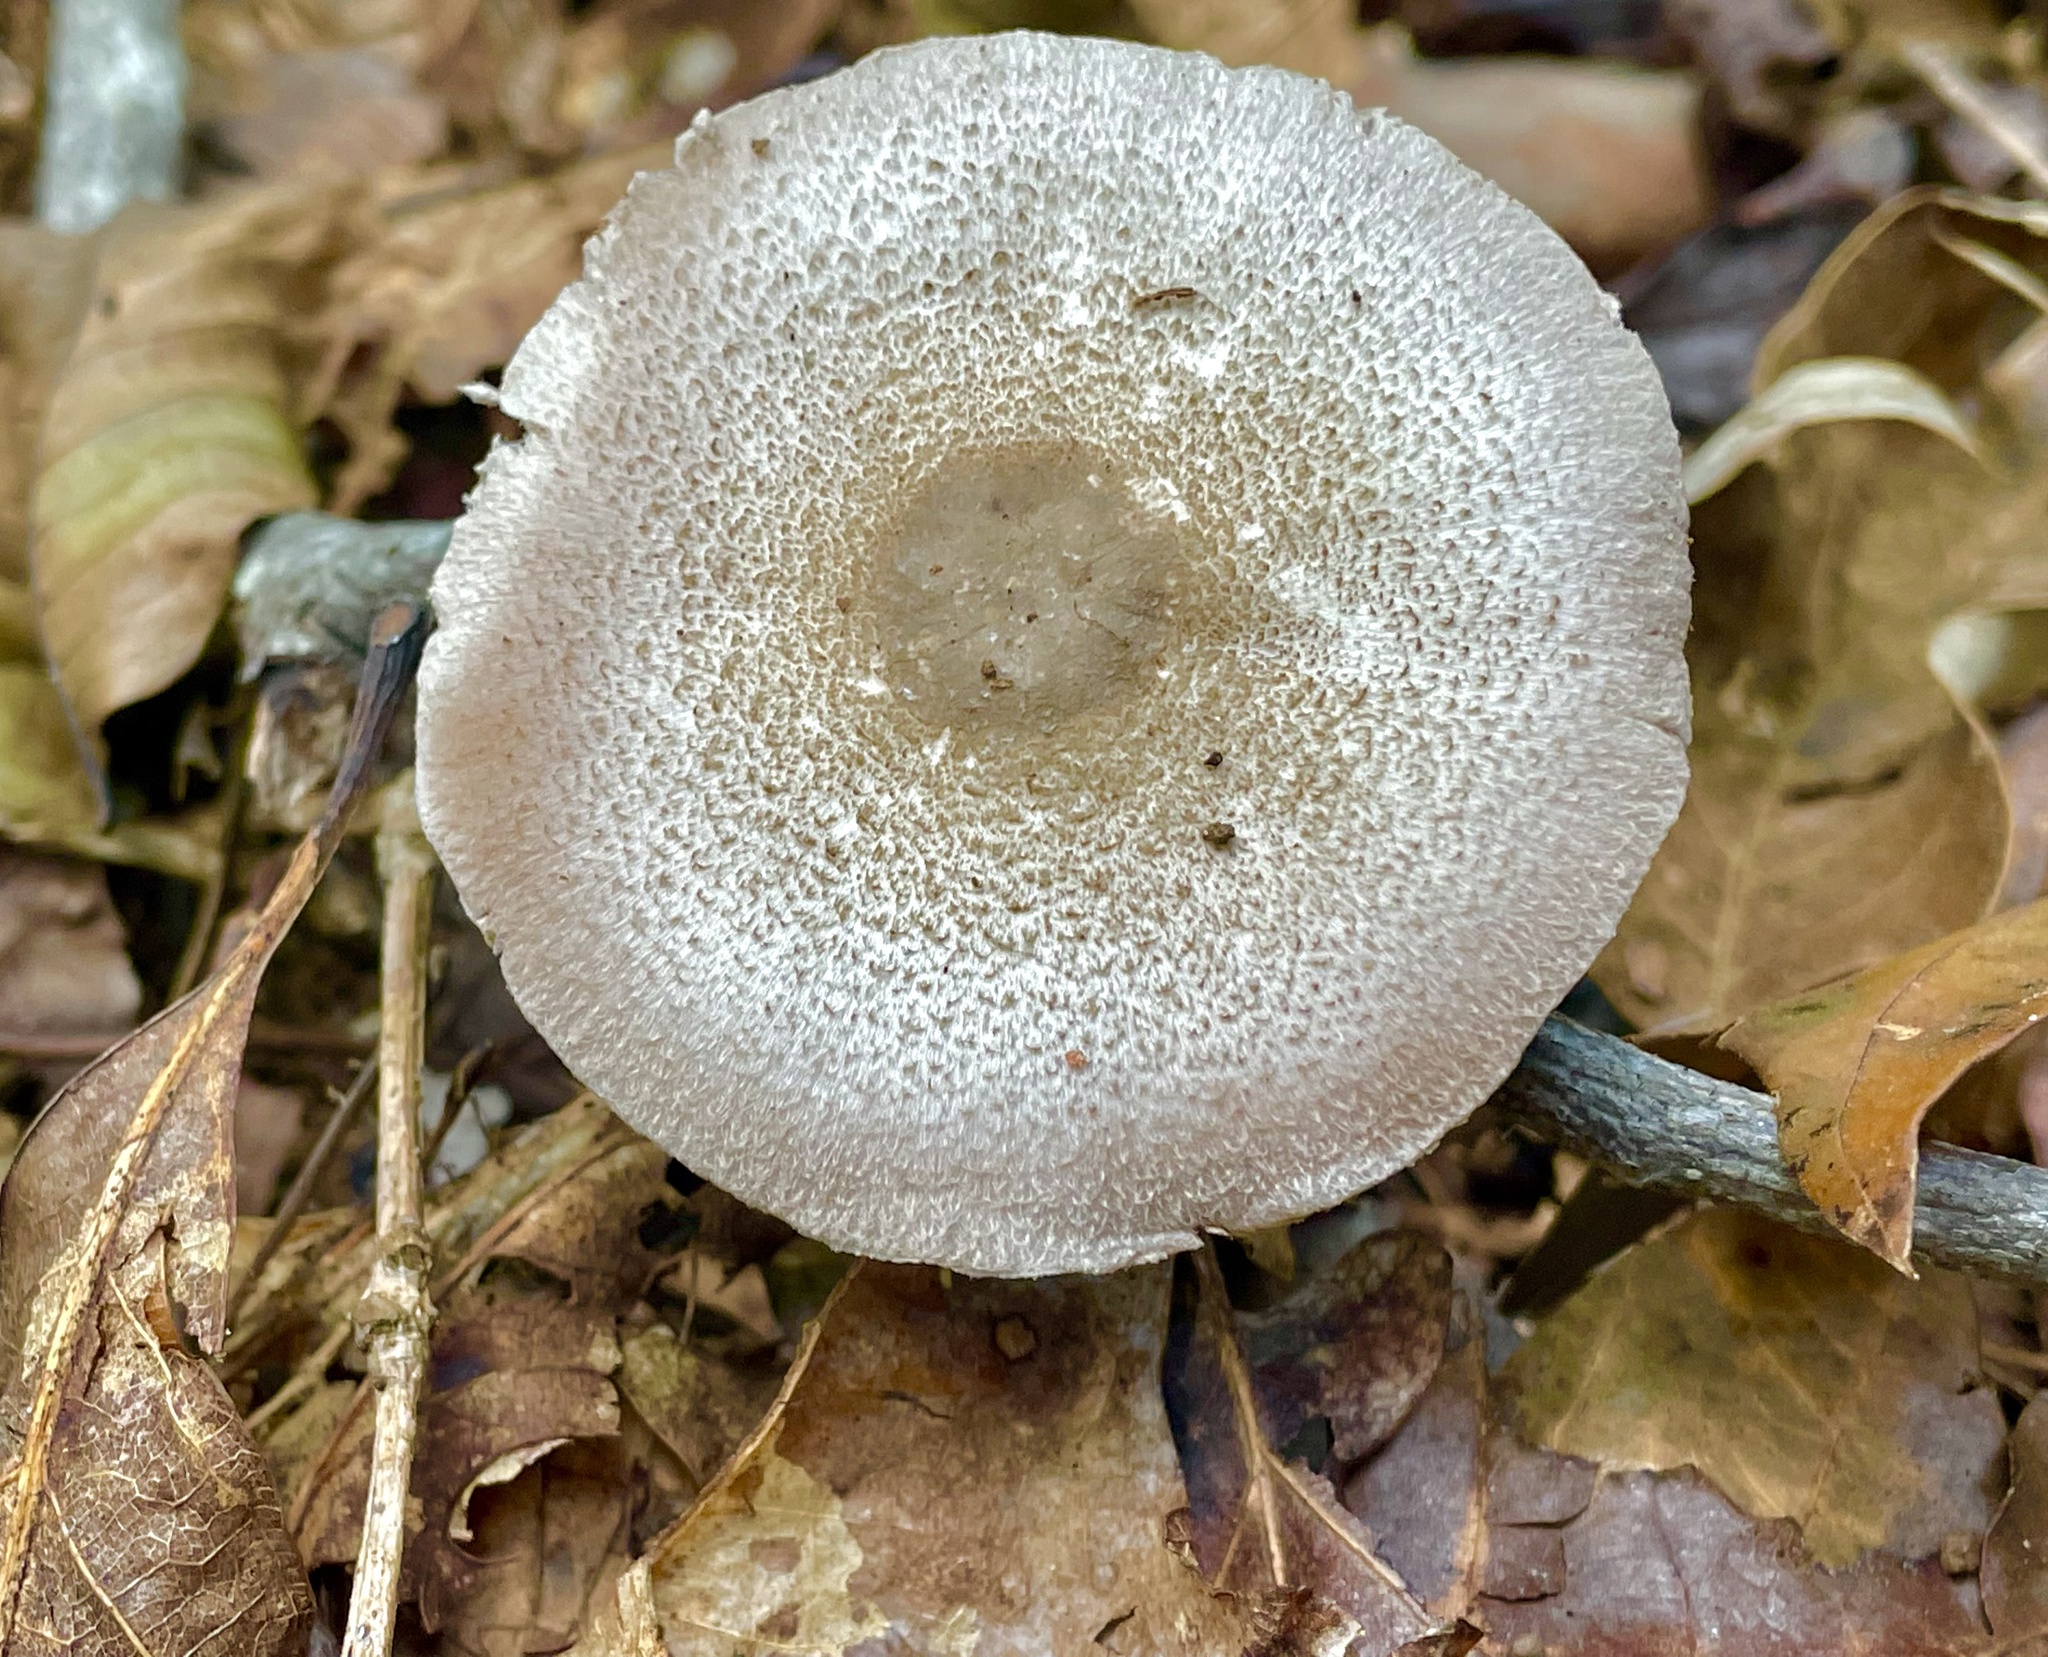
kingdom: Fungi
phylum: Basidiomycota
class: Agaricomycetes
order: Agaricales
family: Agaricaceae
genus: Agaricus
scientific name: Agaricus pocillator
